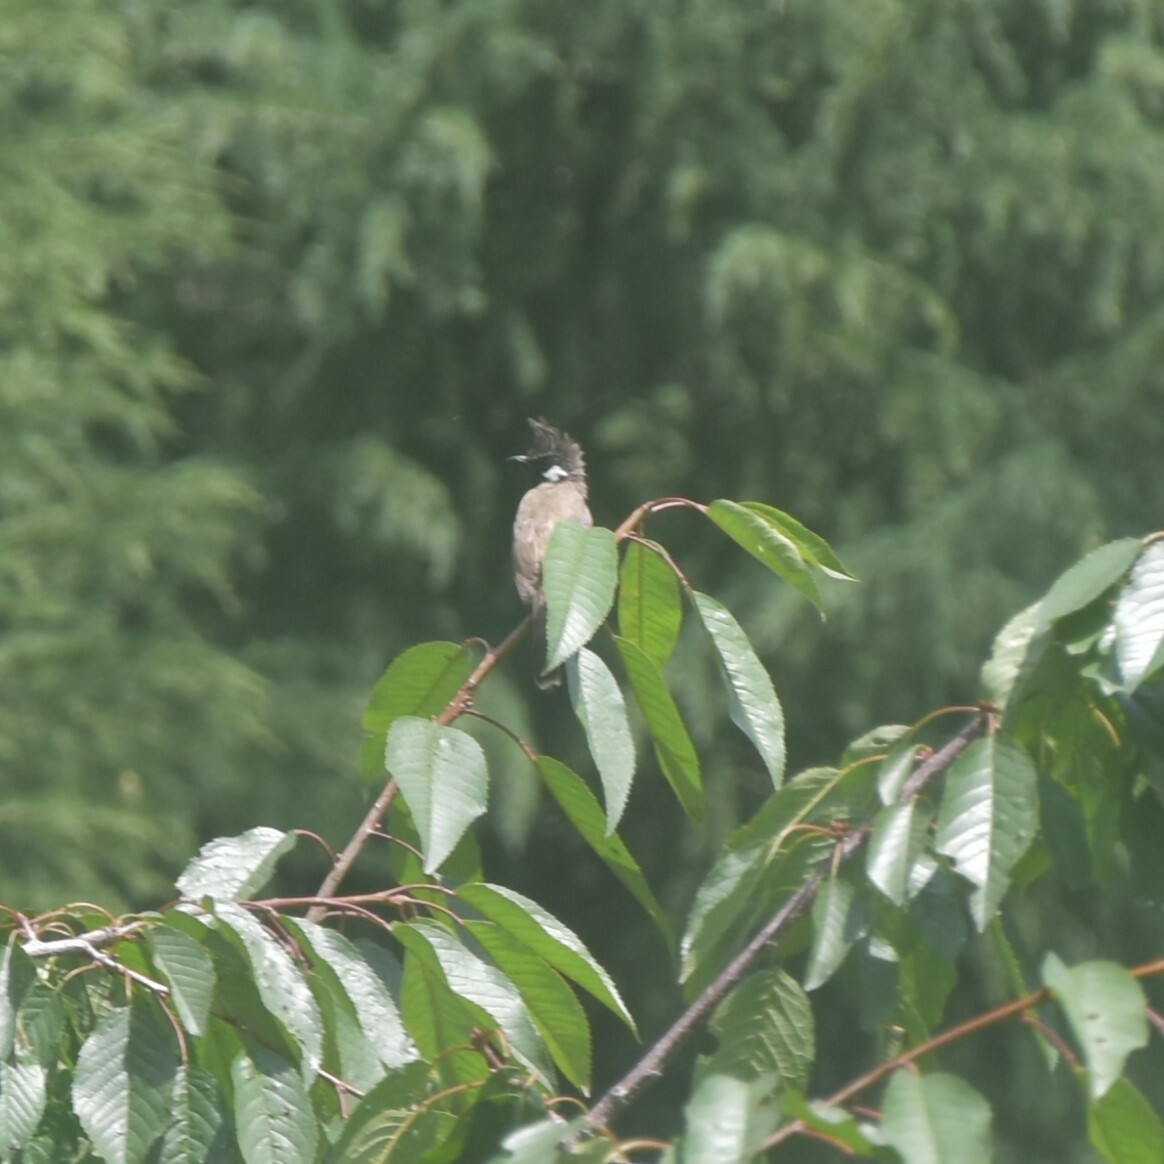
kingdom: Animalia
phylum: Chordata
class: Aves
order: Passeriformes
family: Pycnonotidae
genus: Pycnonotus
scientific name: Pycnonotus leucogenys
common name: Himalayan bulbul
